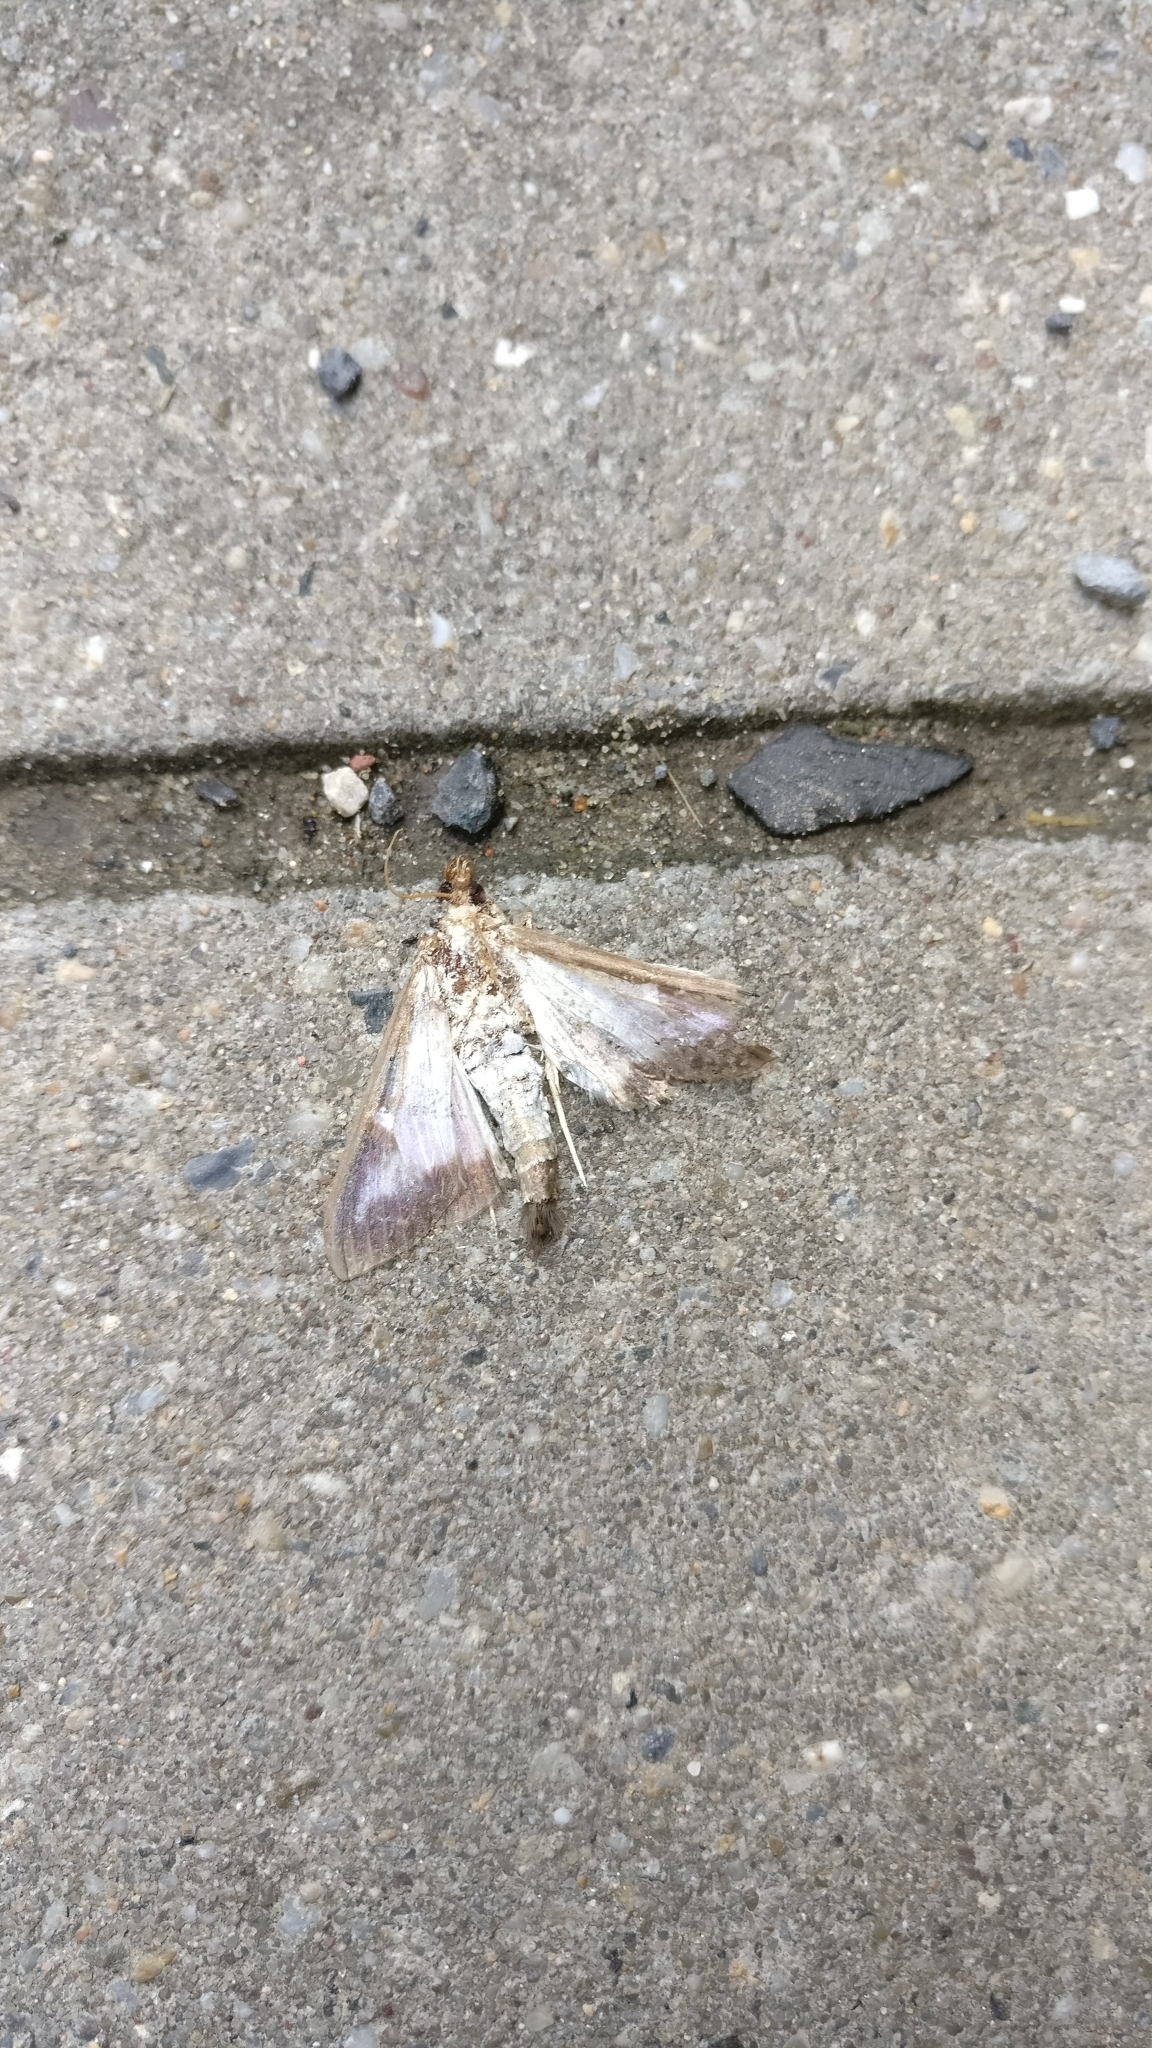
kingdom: Animalia
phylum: Arthropoda
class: Insecta
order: Lepidoptera
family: Crambidae
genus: Cydalima
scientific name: Cydalima perspectalis
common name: Box tree moth
